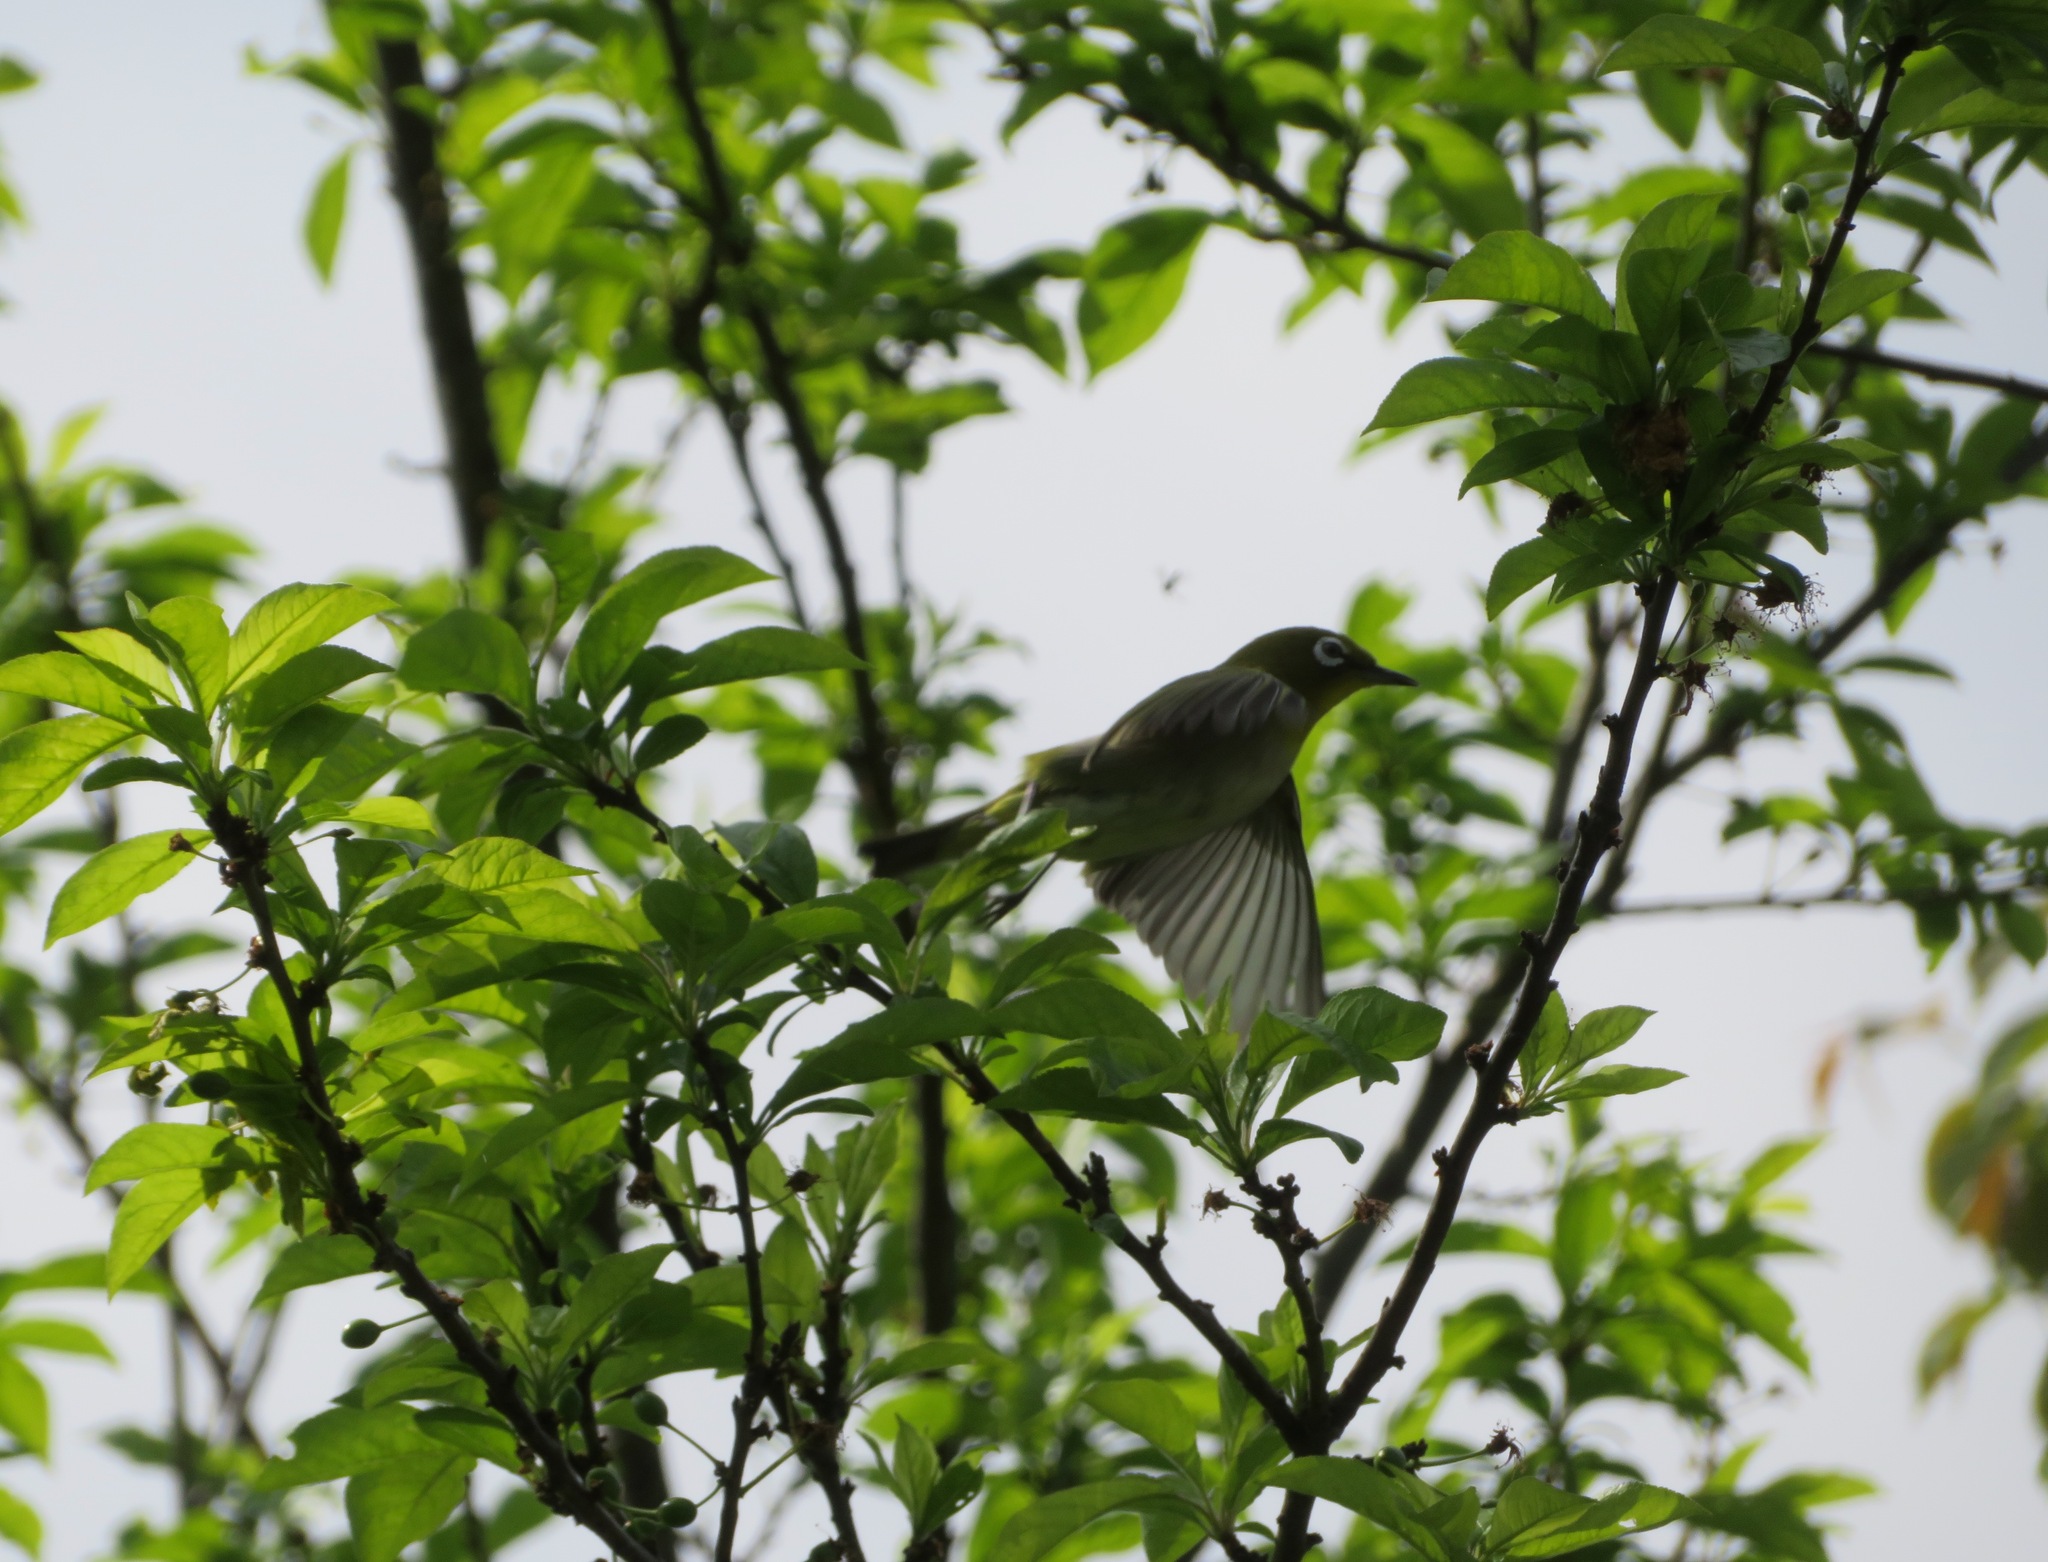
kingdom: Animalia
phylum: Chordata
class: Aves
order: Passeriformes
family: Zosteropidae
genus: Zosterops
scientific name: Zosterops japonicus
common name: Japanese white-eye
